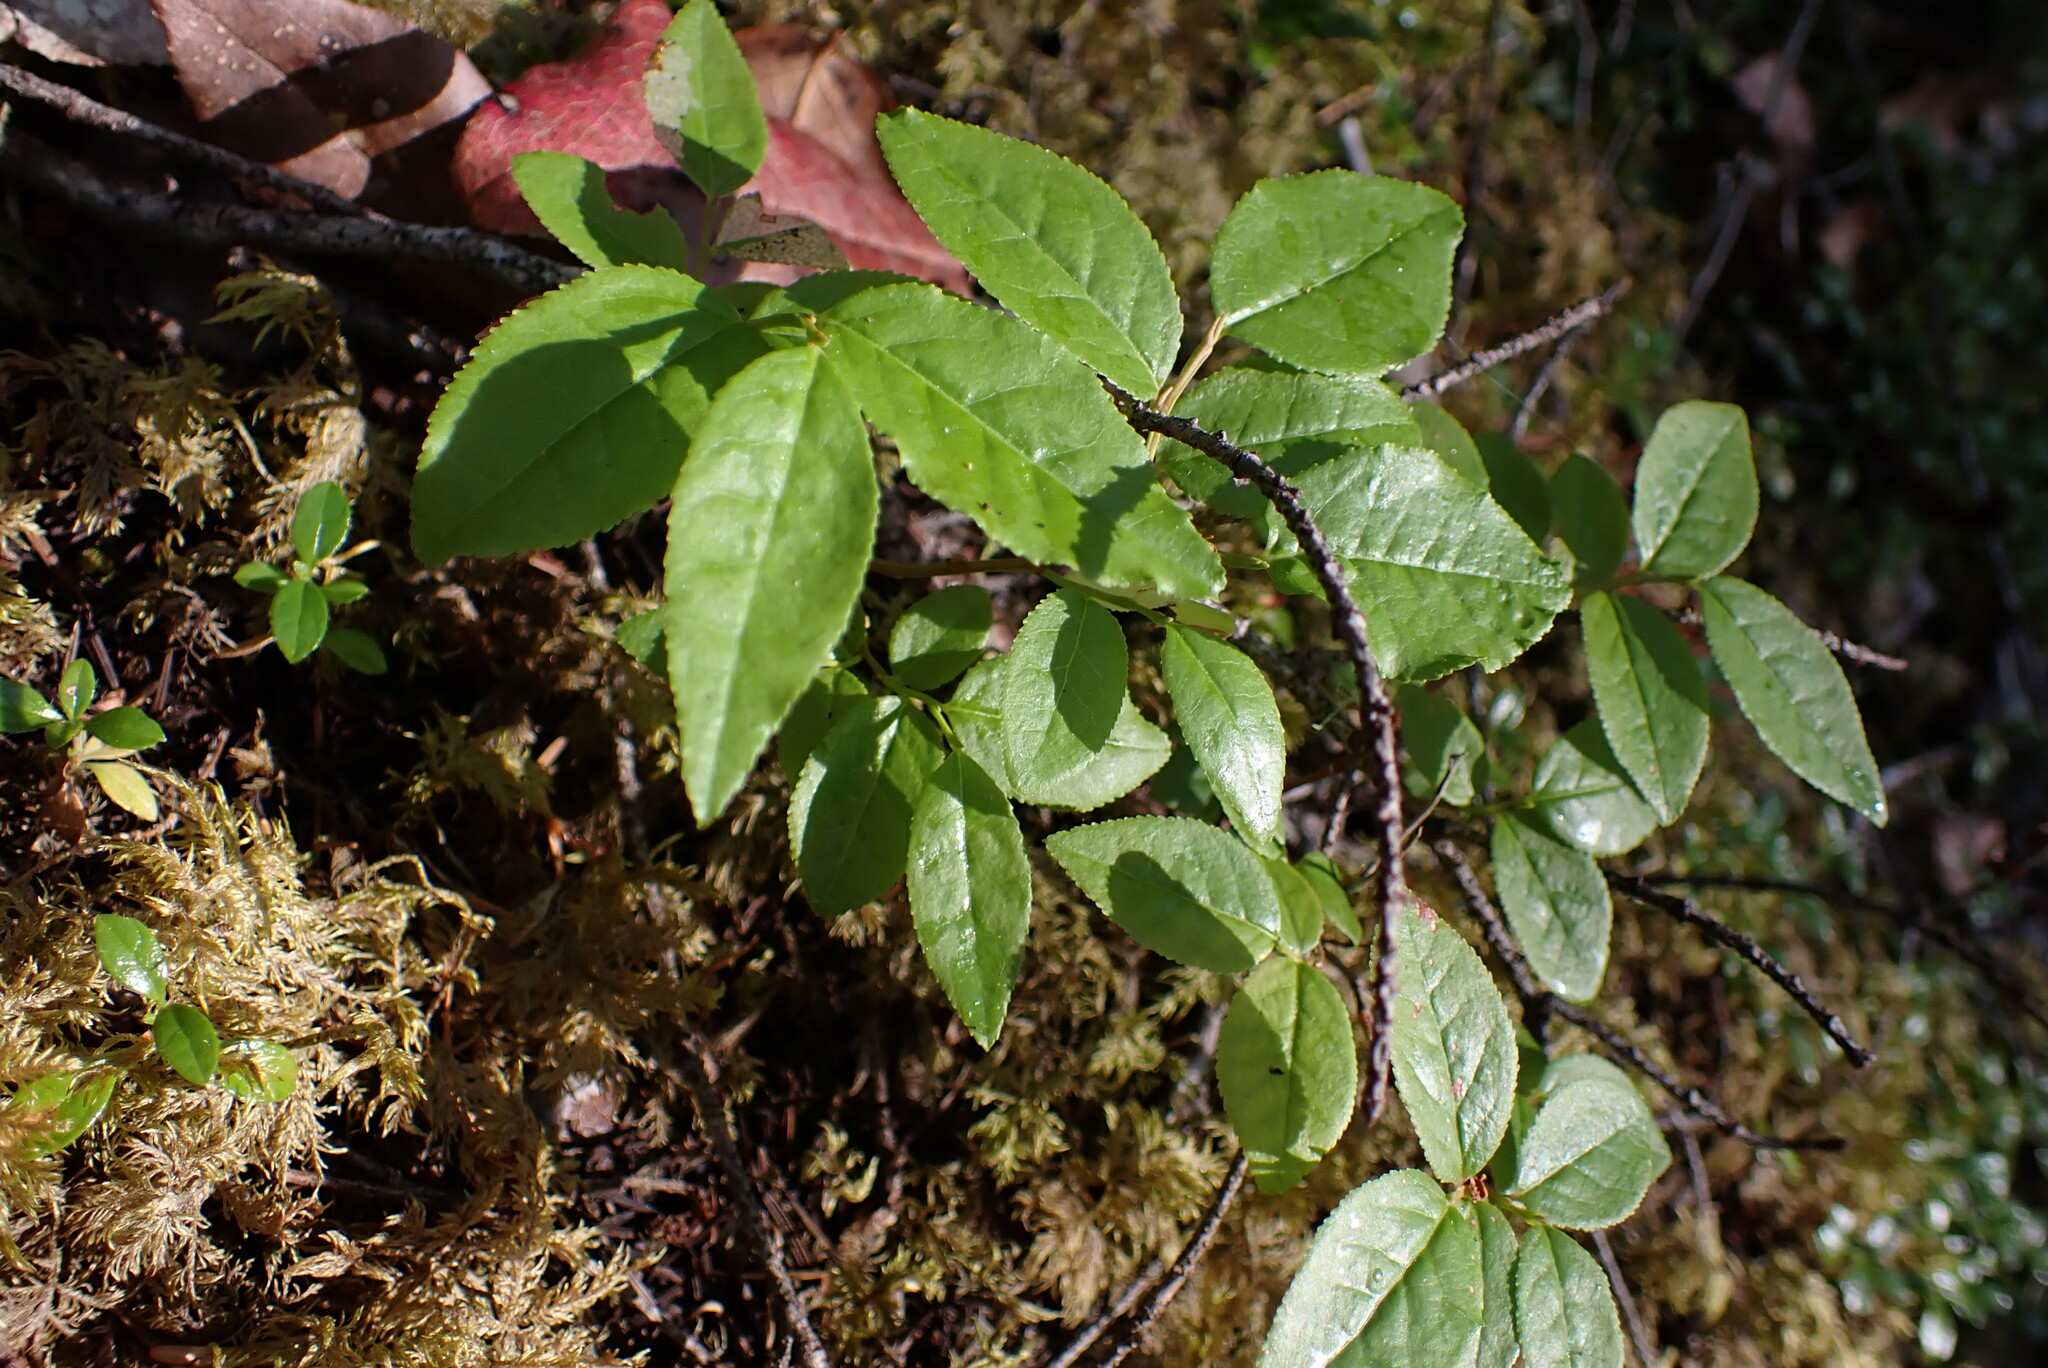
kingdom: Plantae
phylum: Tracheophyta
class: Magnoliopsida
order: Ericales
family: Ericaceae
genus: Orthilia
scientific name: Orthilia secunda
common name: One-sided orthilia
